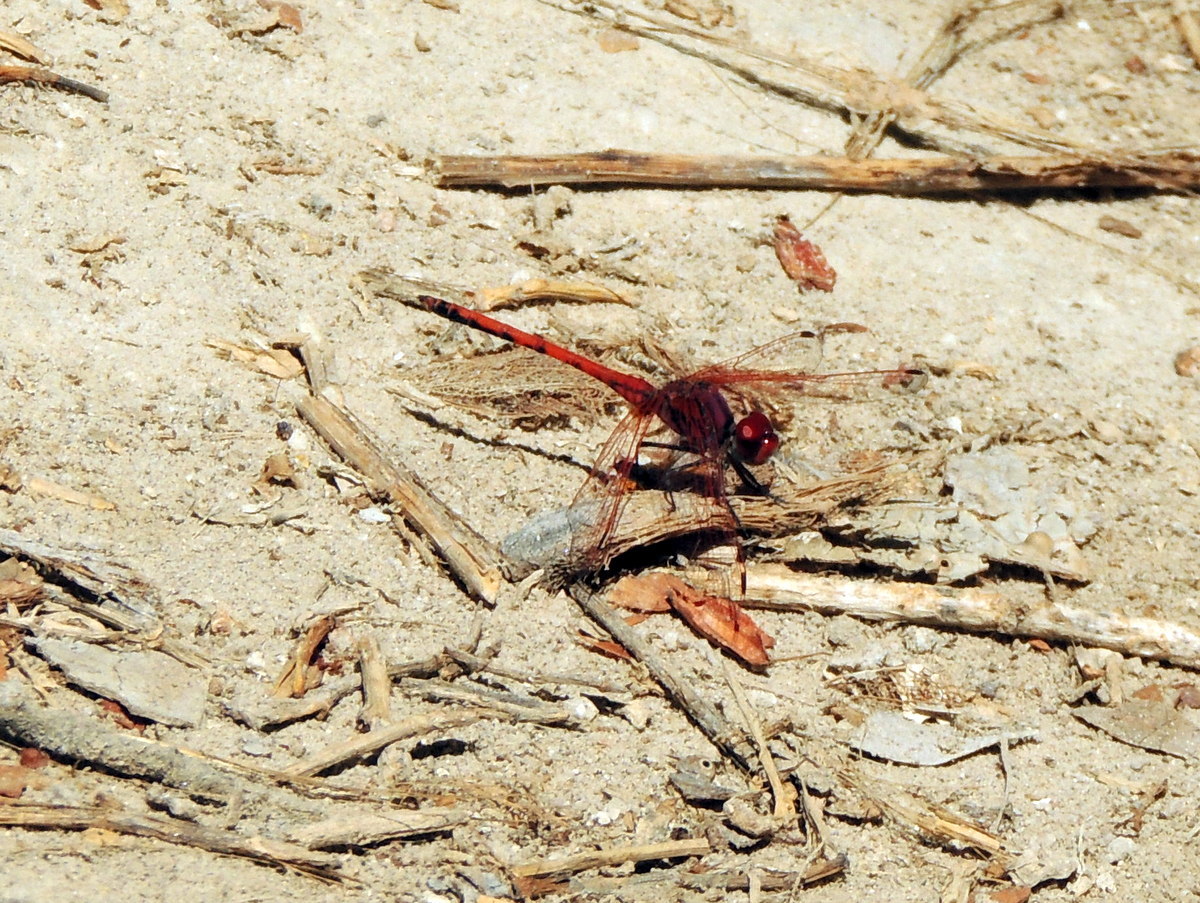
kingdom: Animalia
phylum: Arthropoda
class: Insecta
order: Odonata
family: Libellulidae
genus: Trithemis
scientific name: Trithemis arteriosa
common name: Red-veined dropwing
